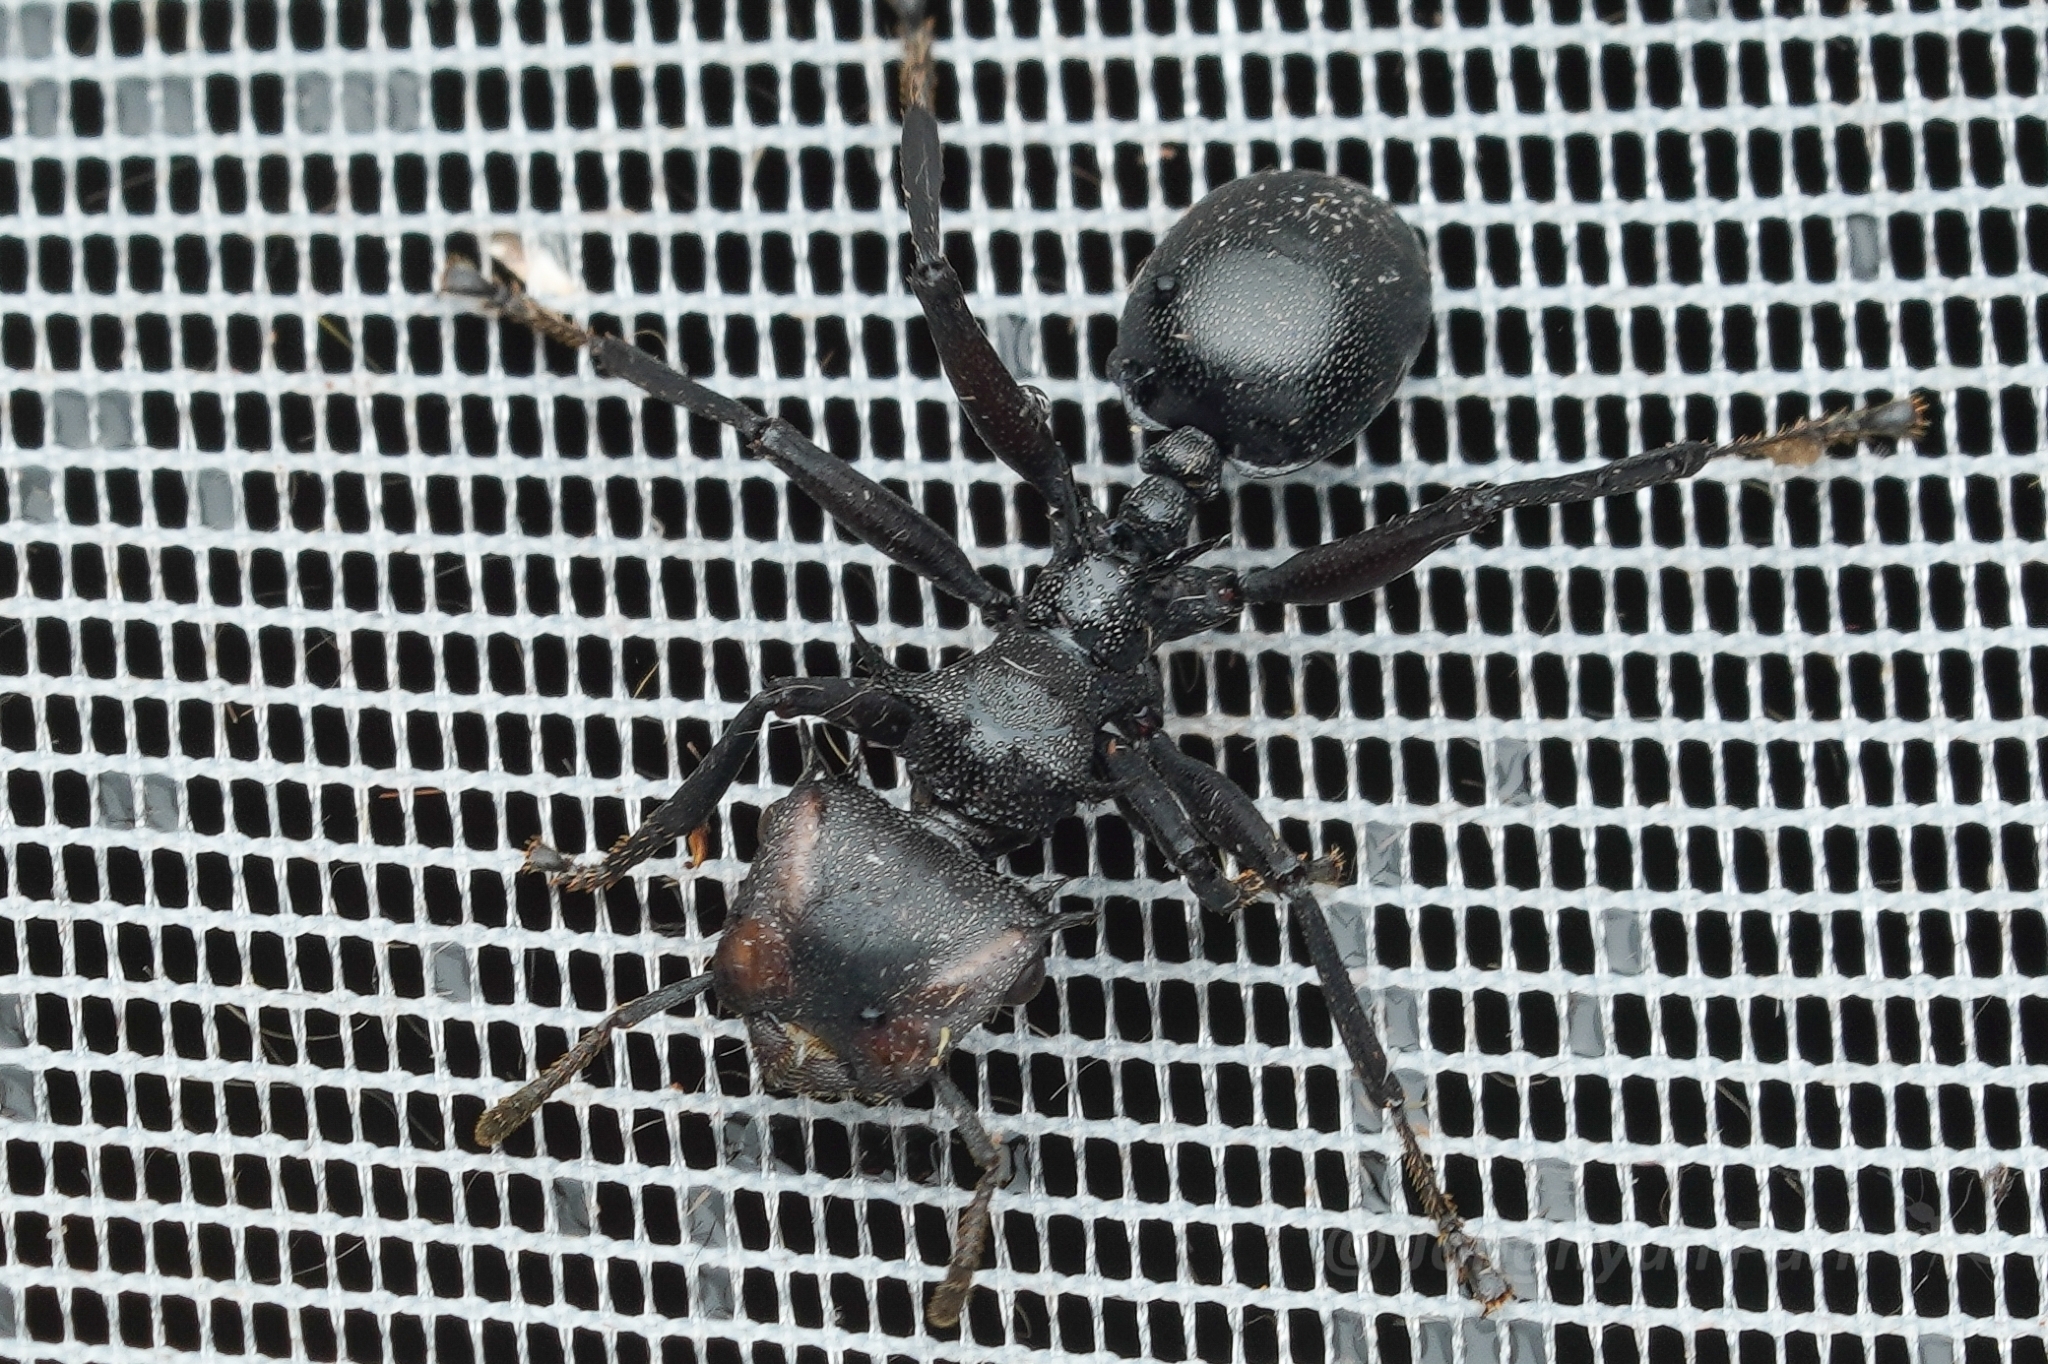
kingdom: Animalia
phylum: Arthropoda
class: Insecta
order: Hymenoptera
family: Formicidae
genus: Cephalotes
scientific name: Cephalotes atratus
